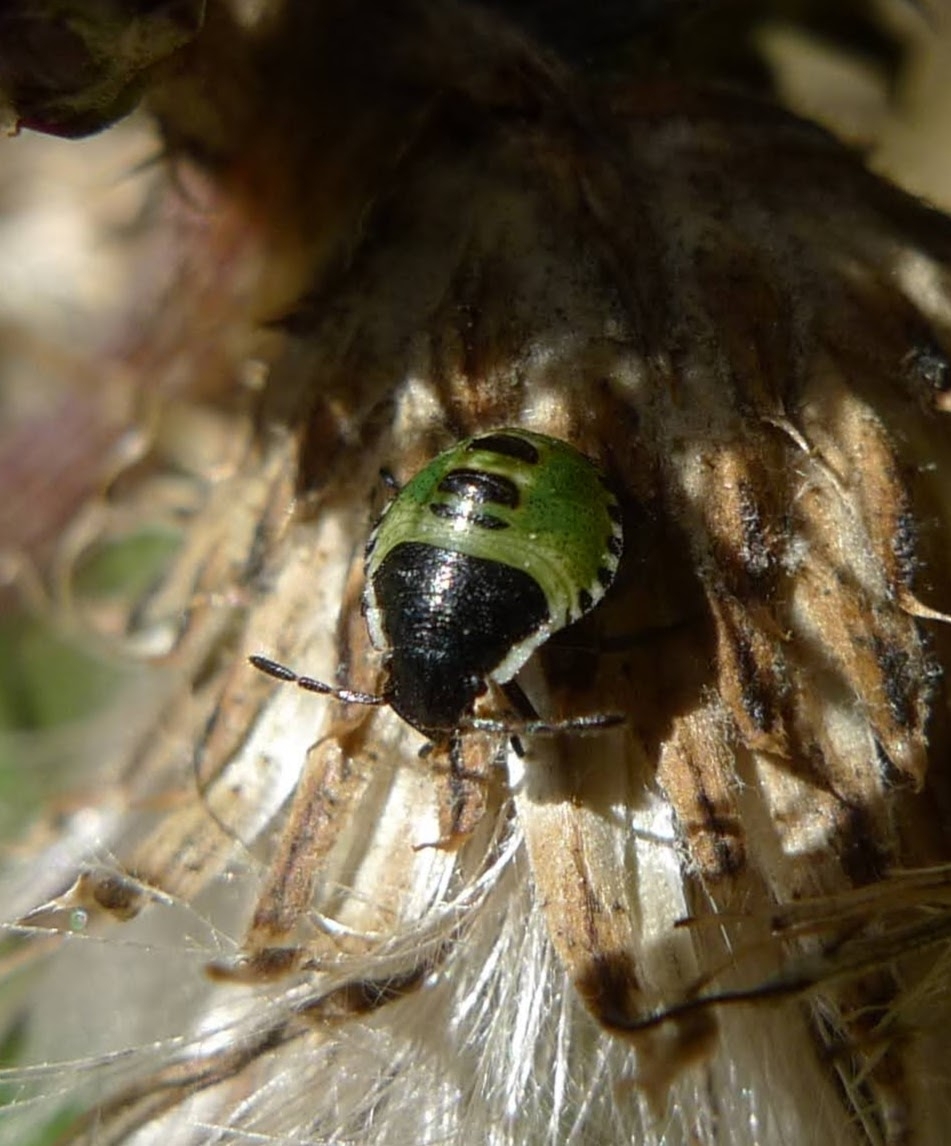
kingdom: Animalia
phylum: Arthropoda
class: Insecta
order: Hemiptera
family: Pentatomidae
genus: Palomena
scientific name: Palomena prasina
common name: Green shieldbug
